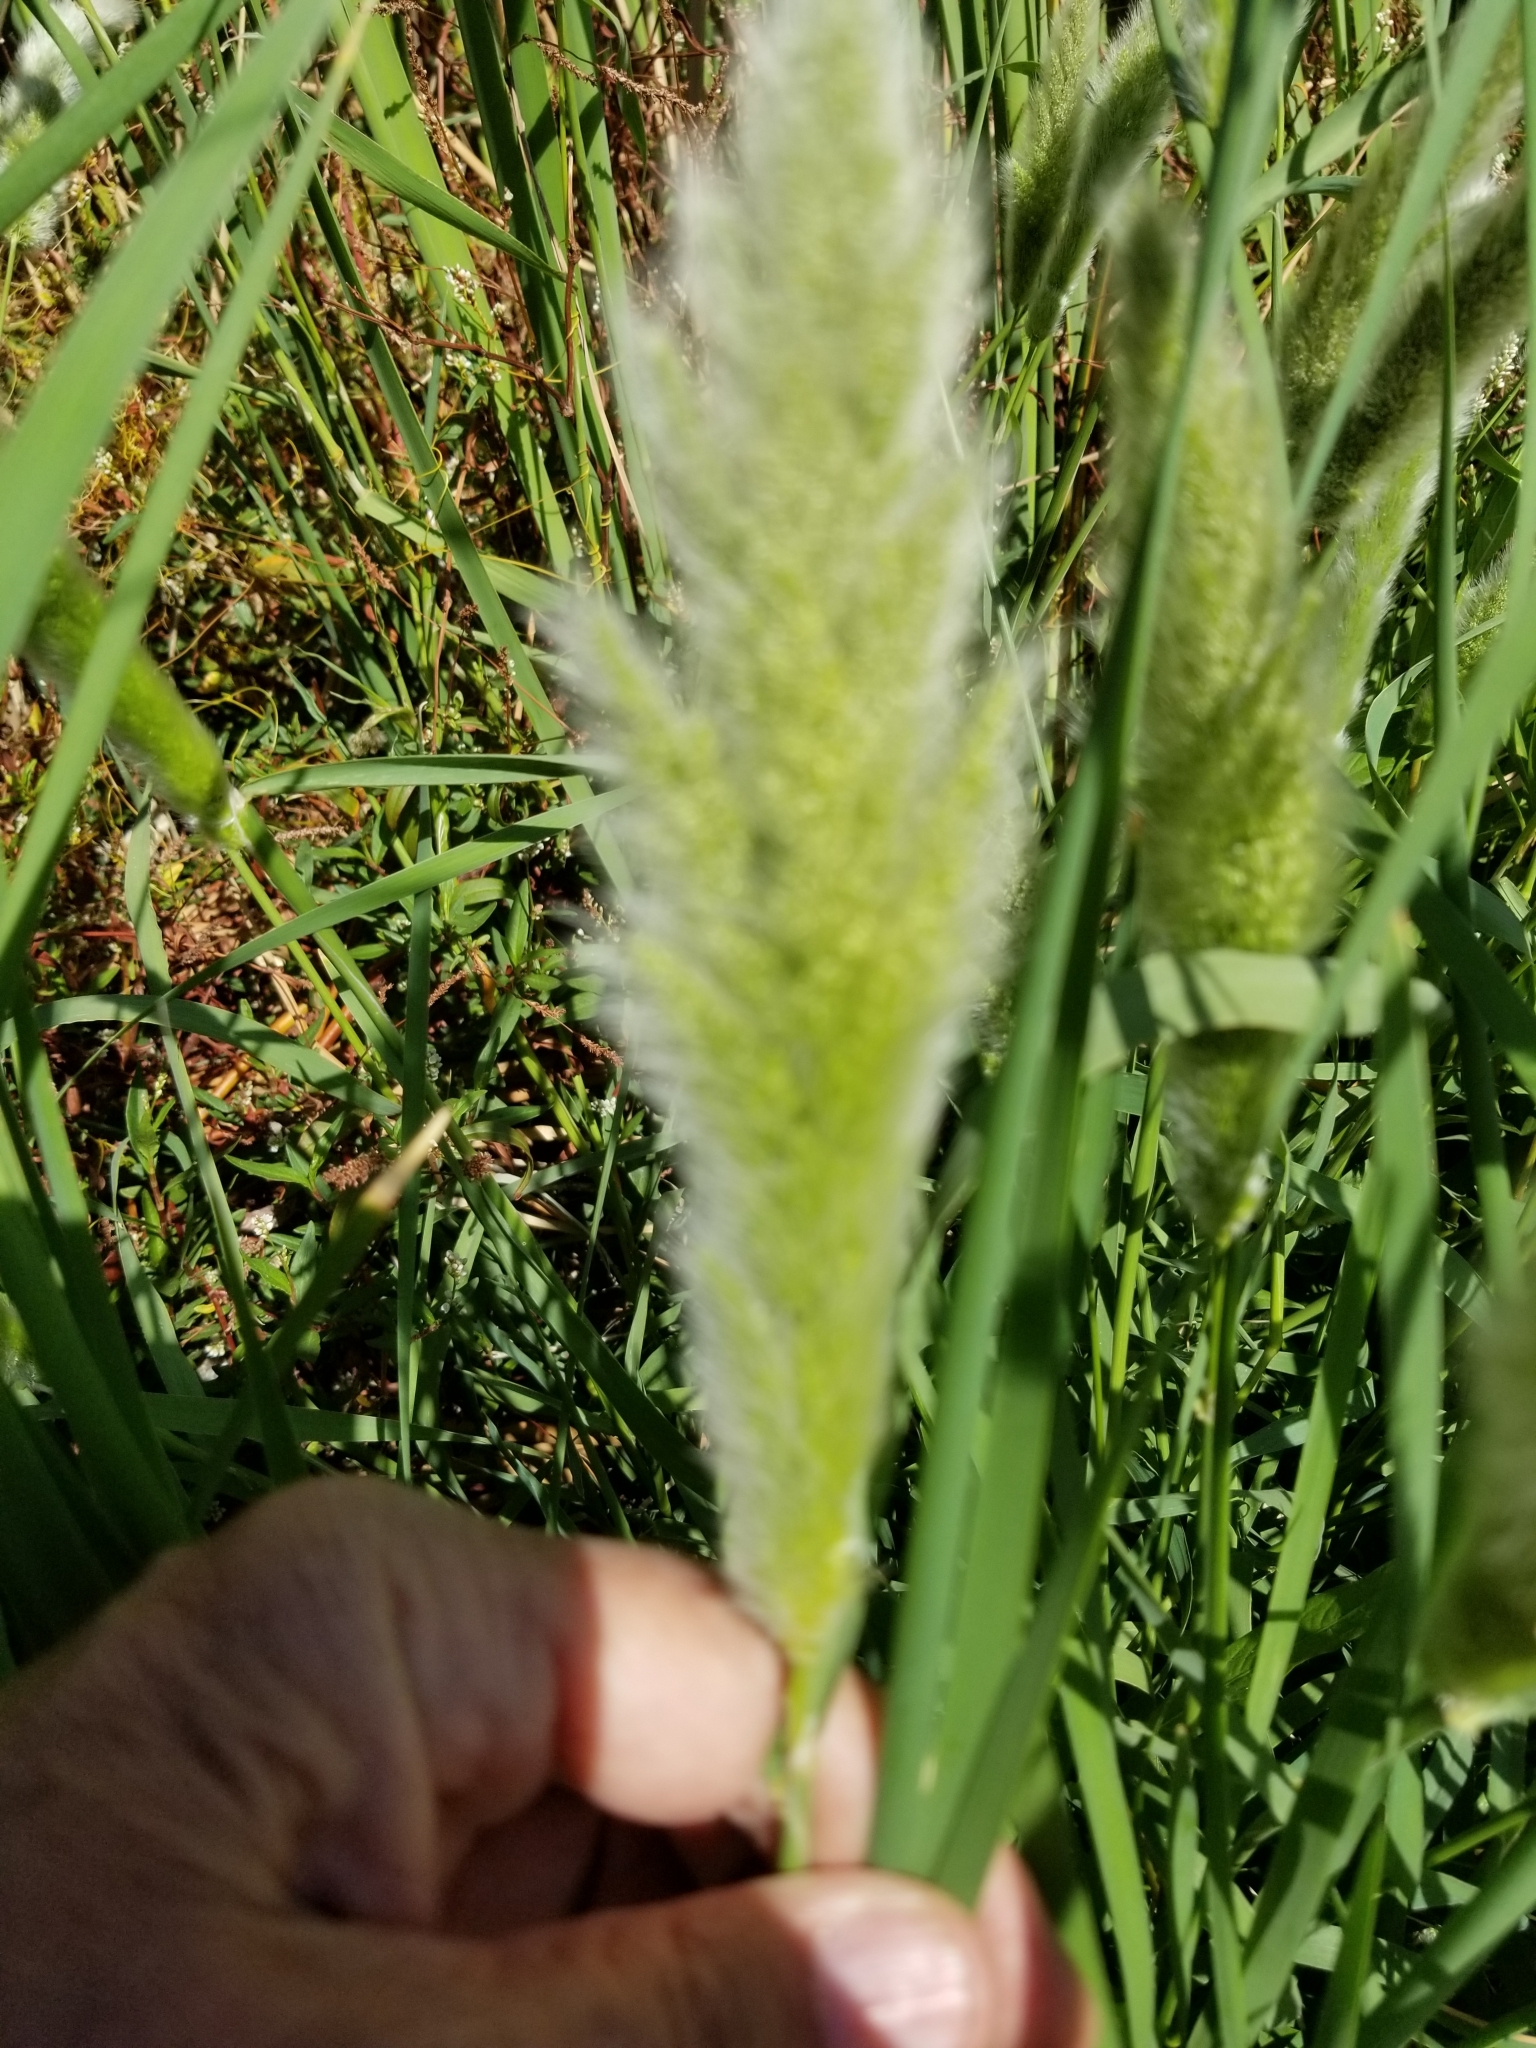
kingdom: Plantae
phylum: Tracheophyta
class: Liliopsida
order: Poales
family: Poaceae
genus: Polypogon
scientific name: Polypogon monspeliensis
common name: Annual rabbitsfoot grass
